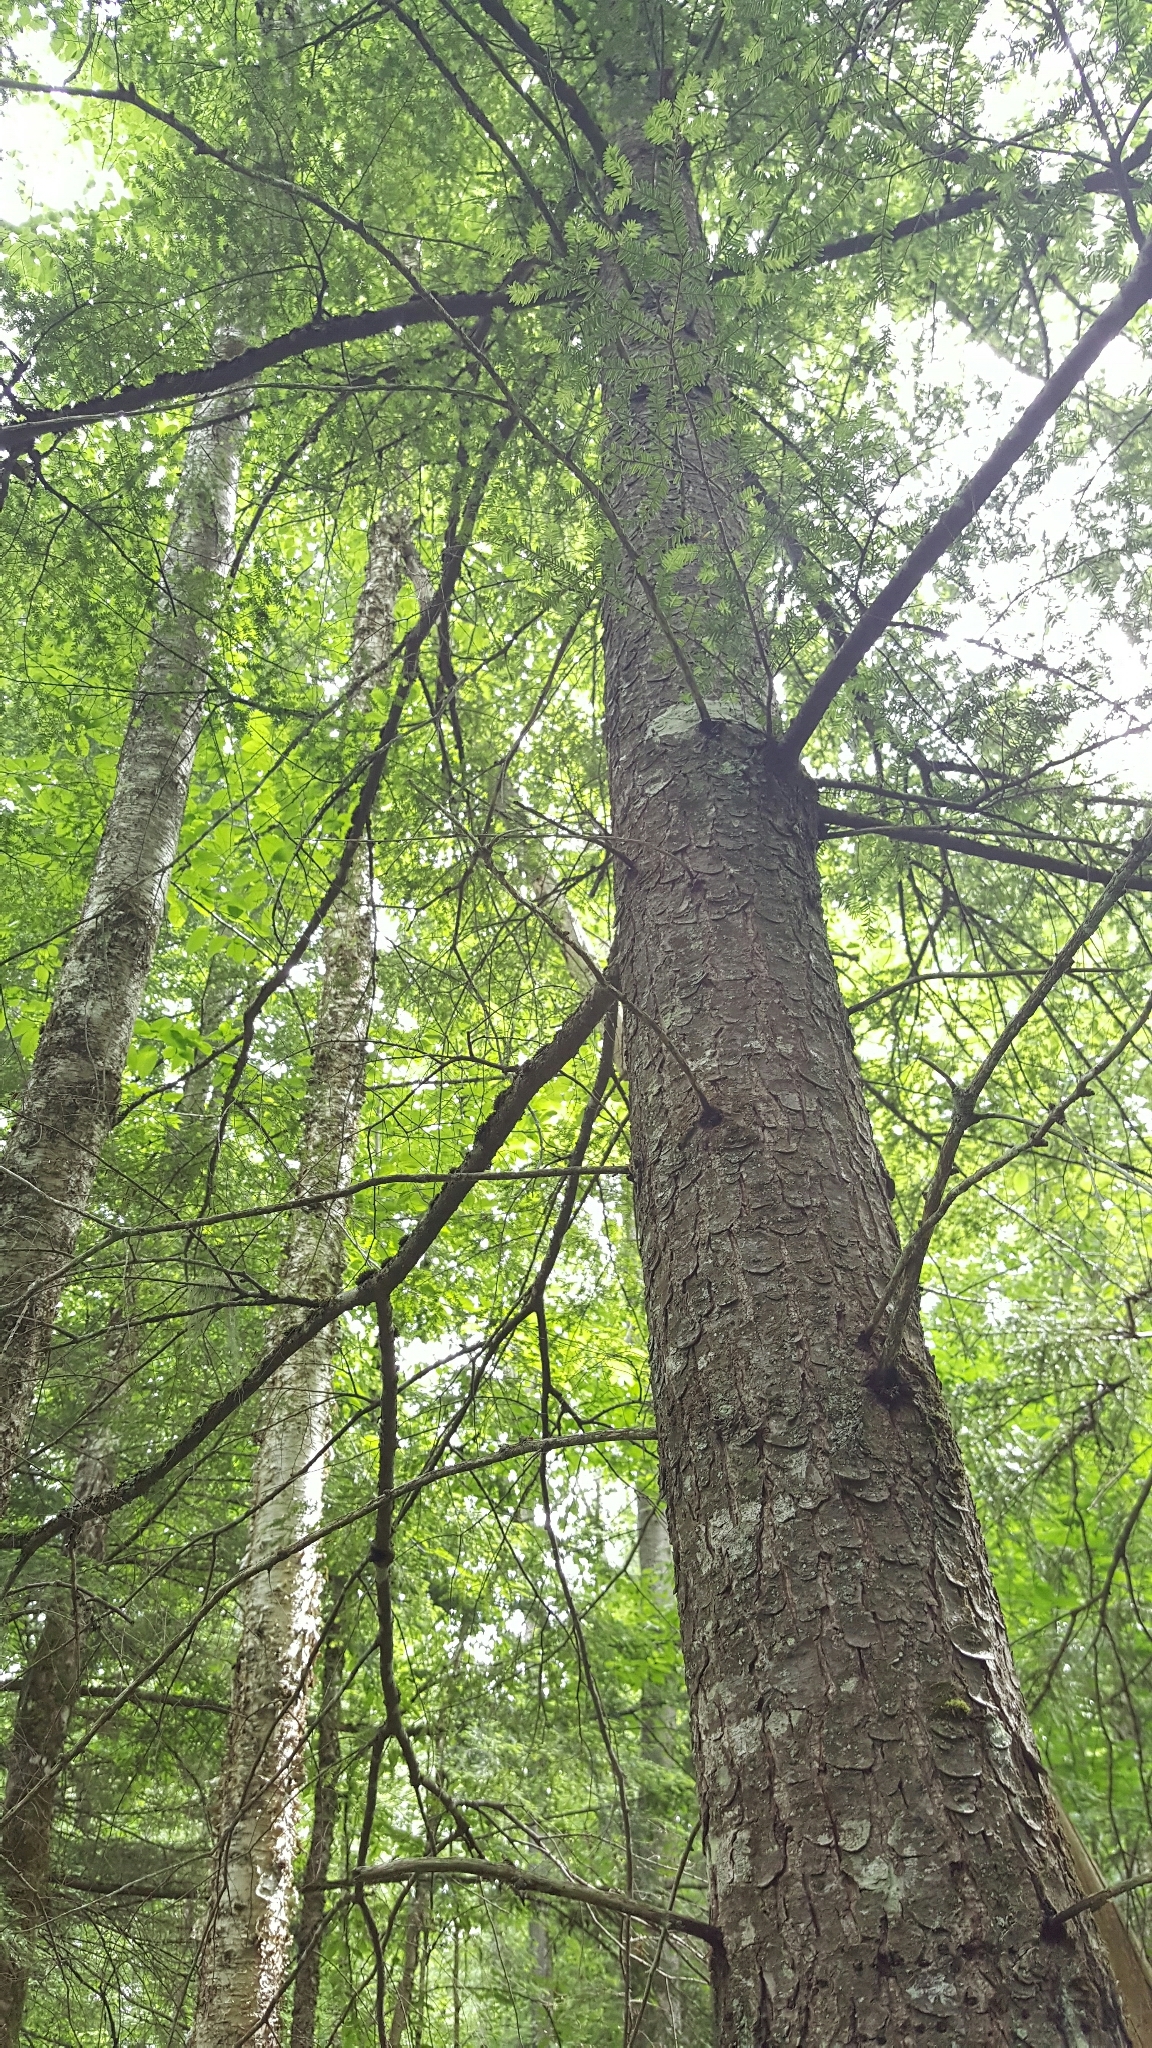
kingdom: Plantae
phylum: Tracheophyta
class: Pinopsida
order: Pinales
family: Pinaceae
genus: Tsuga
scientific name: Tsuga canadensis
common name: Eastern hemlock
